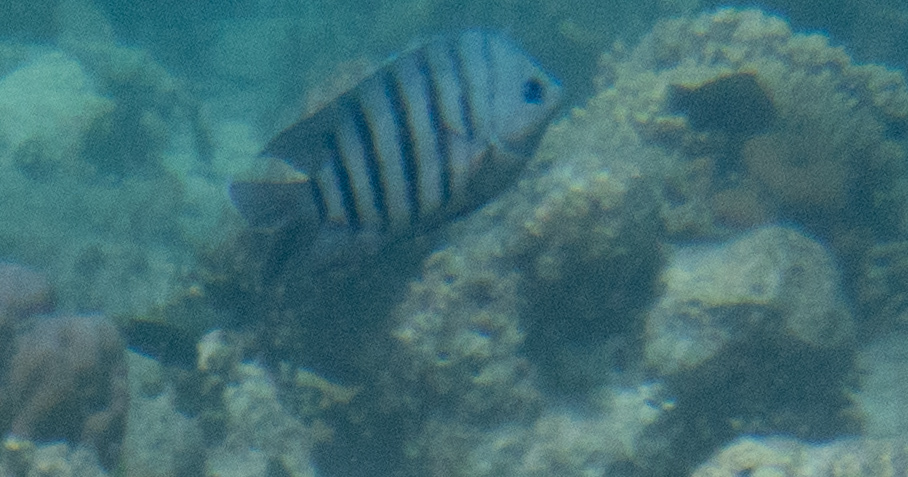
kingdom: Animalia
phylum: Chordata
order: Perciformes
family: Pomacentridae
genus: Abudefduf
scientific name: Abudefduf bengalensis
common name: Bengal sergeant
